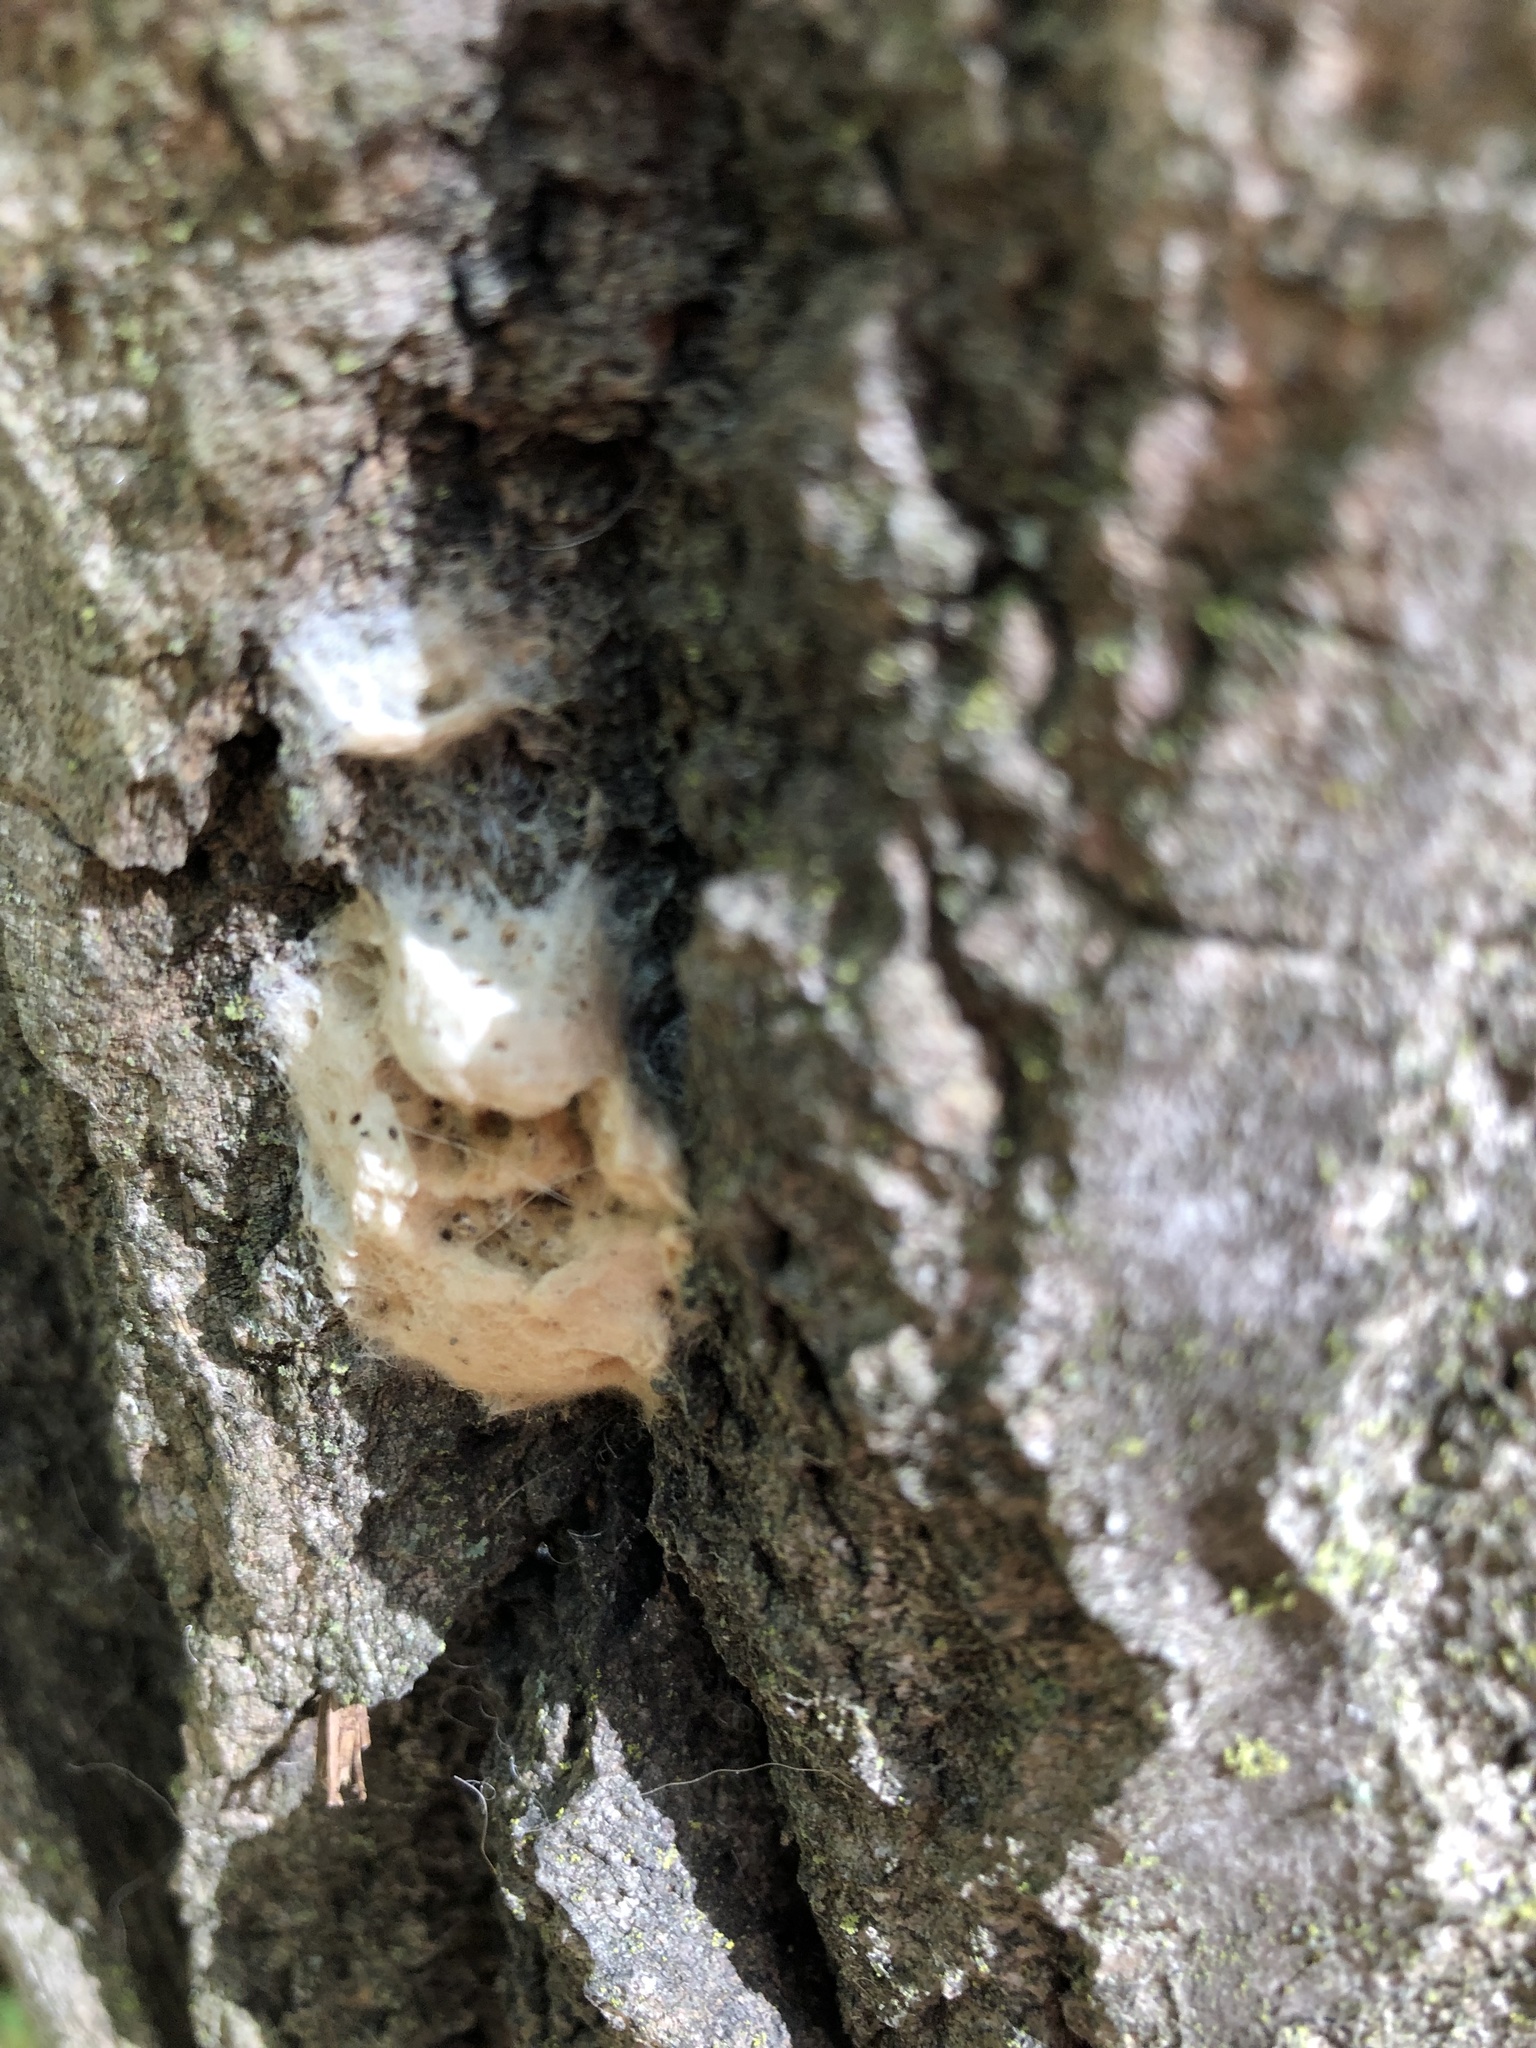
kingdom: Animalia
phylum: Arthropoda
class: Insecta
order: Lepidoptera
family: Erebidae
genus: Lymantria
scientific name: Lymantria dispar
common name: Gypsy moth
